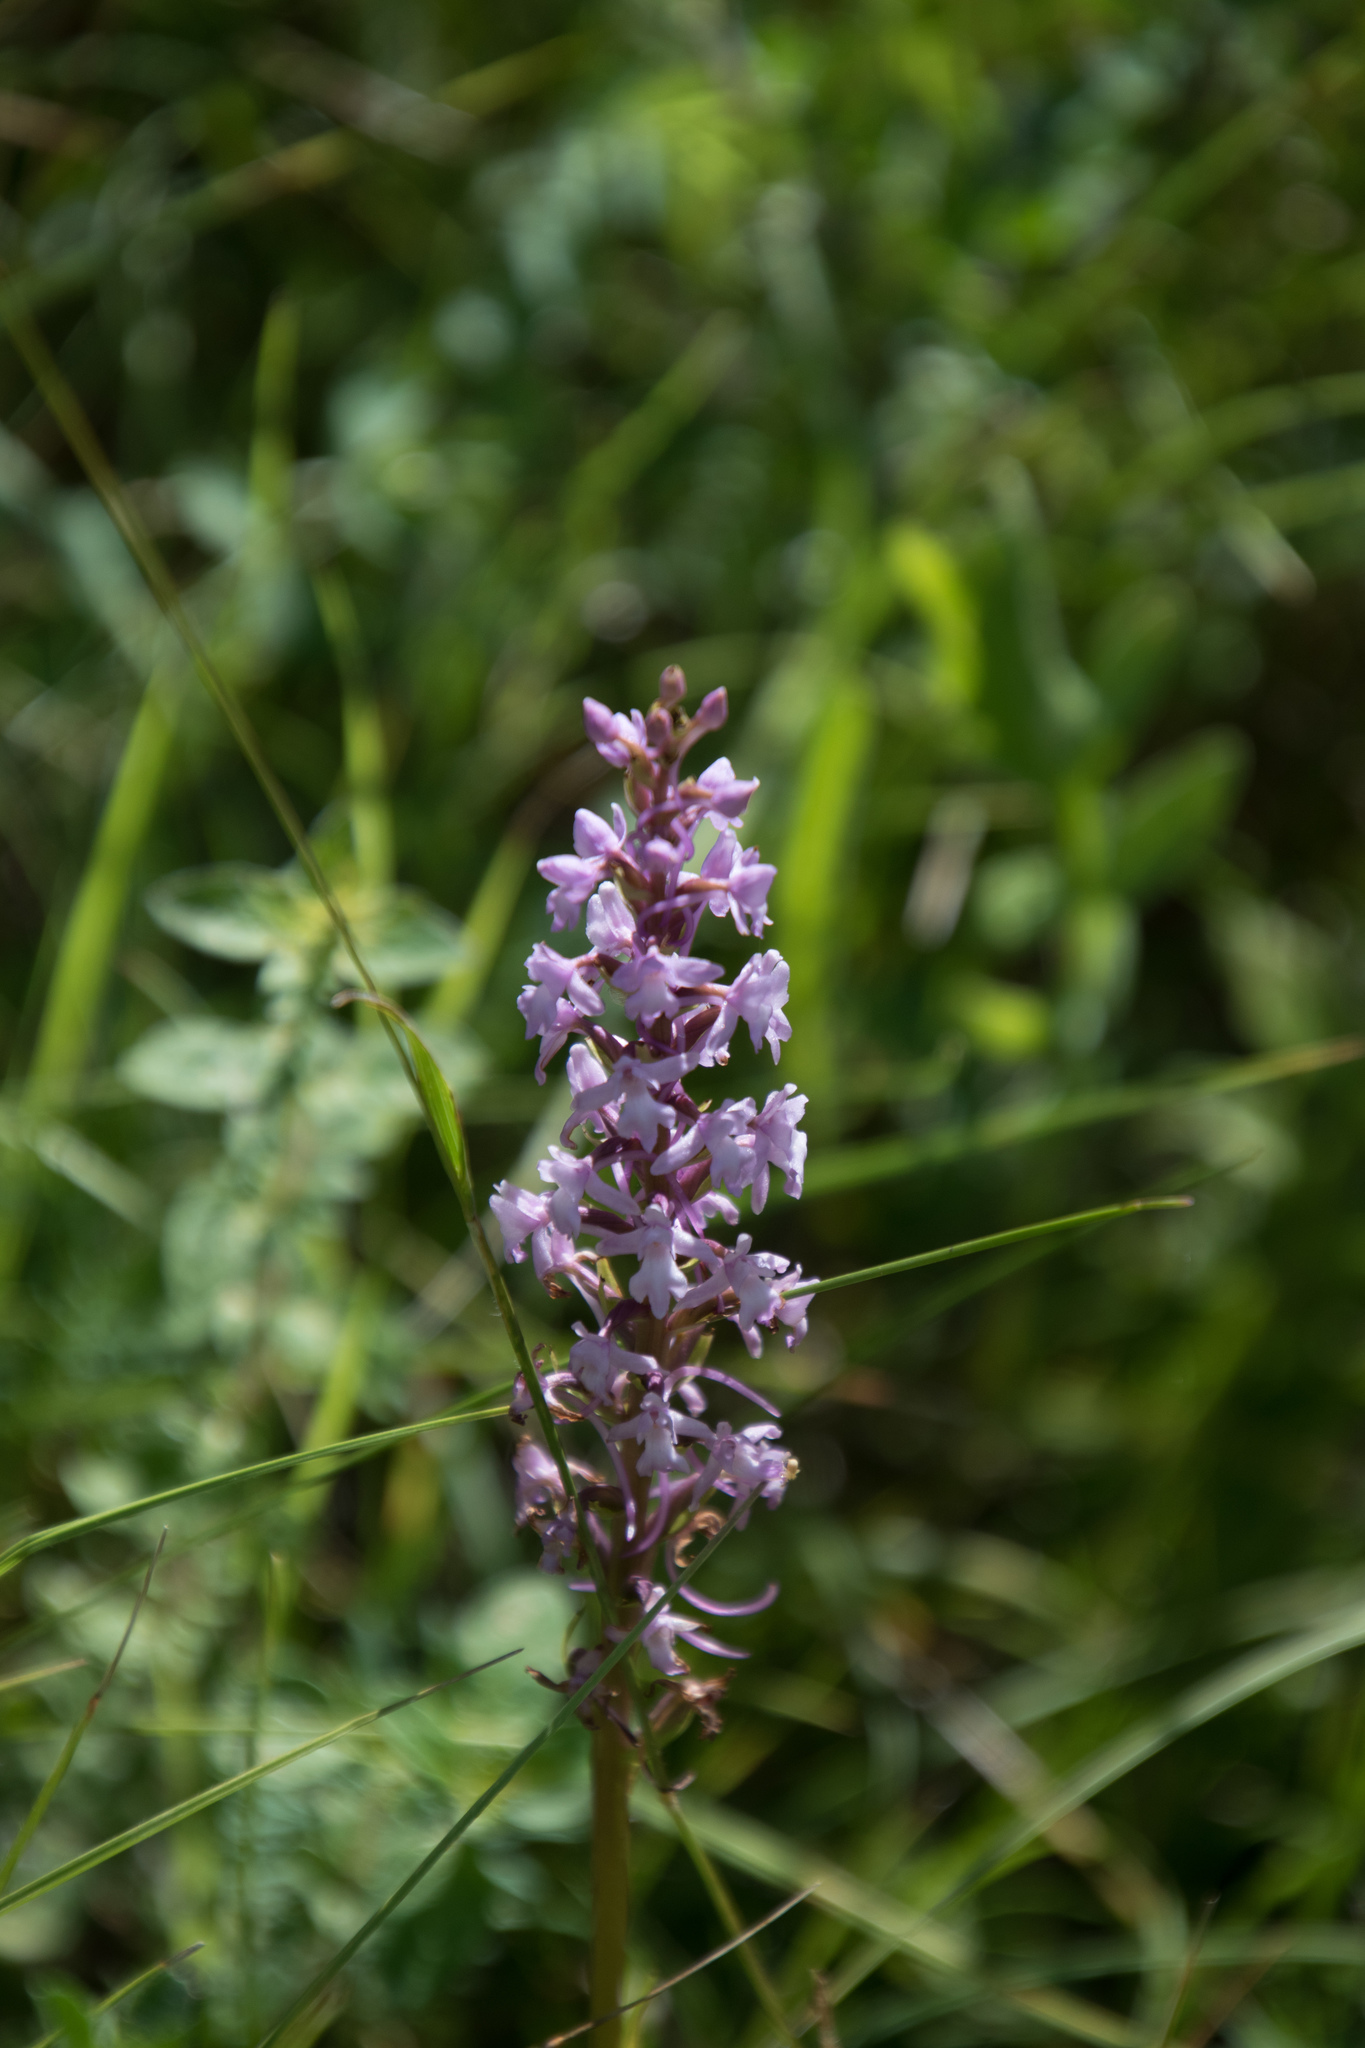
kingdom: Plantae
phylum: Tracheophyta
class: Liliopsida
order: Asparagales
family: Orchidaceae
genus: Gymnadenia
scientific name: Gymnadenia conopsea
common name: Fragrant orchid
